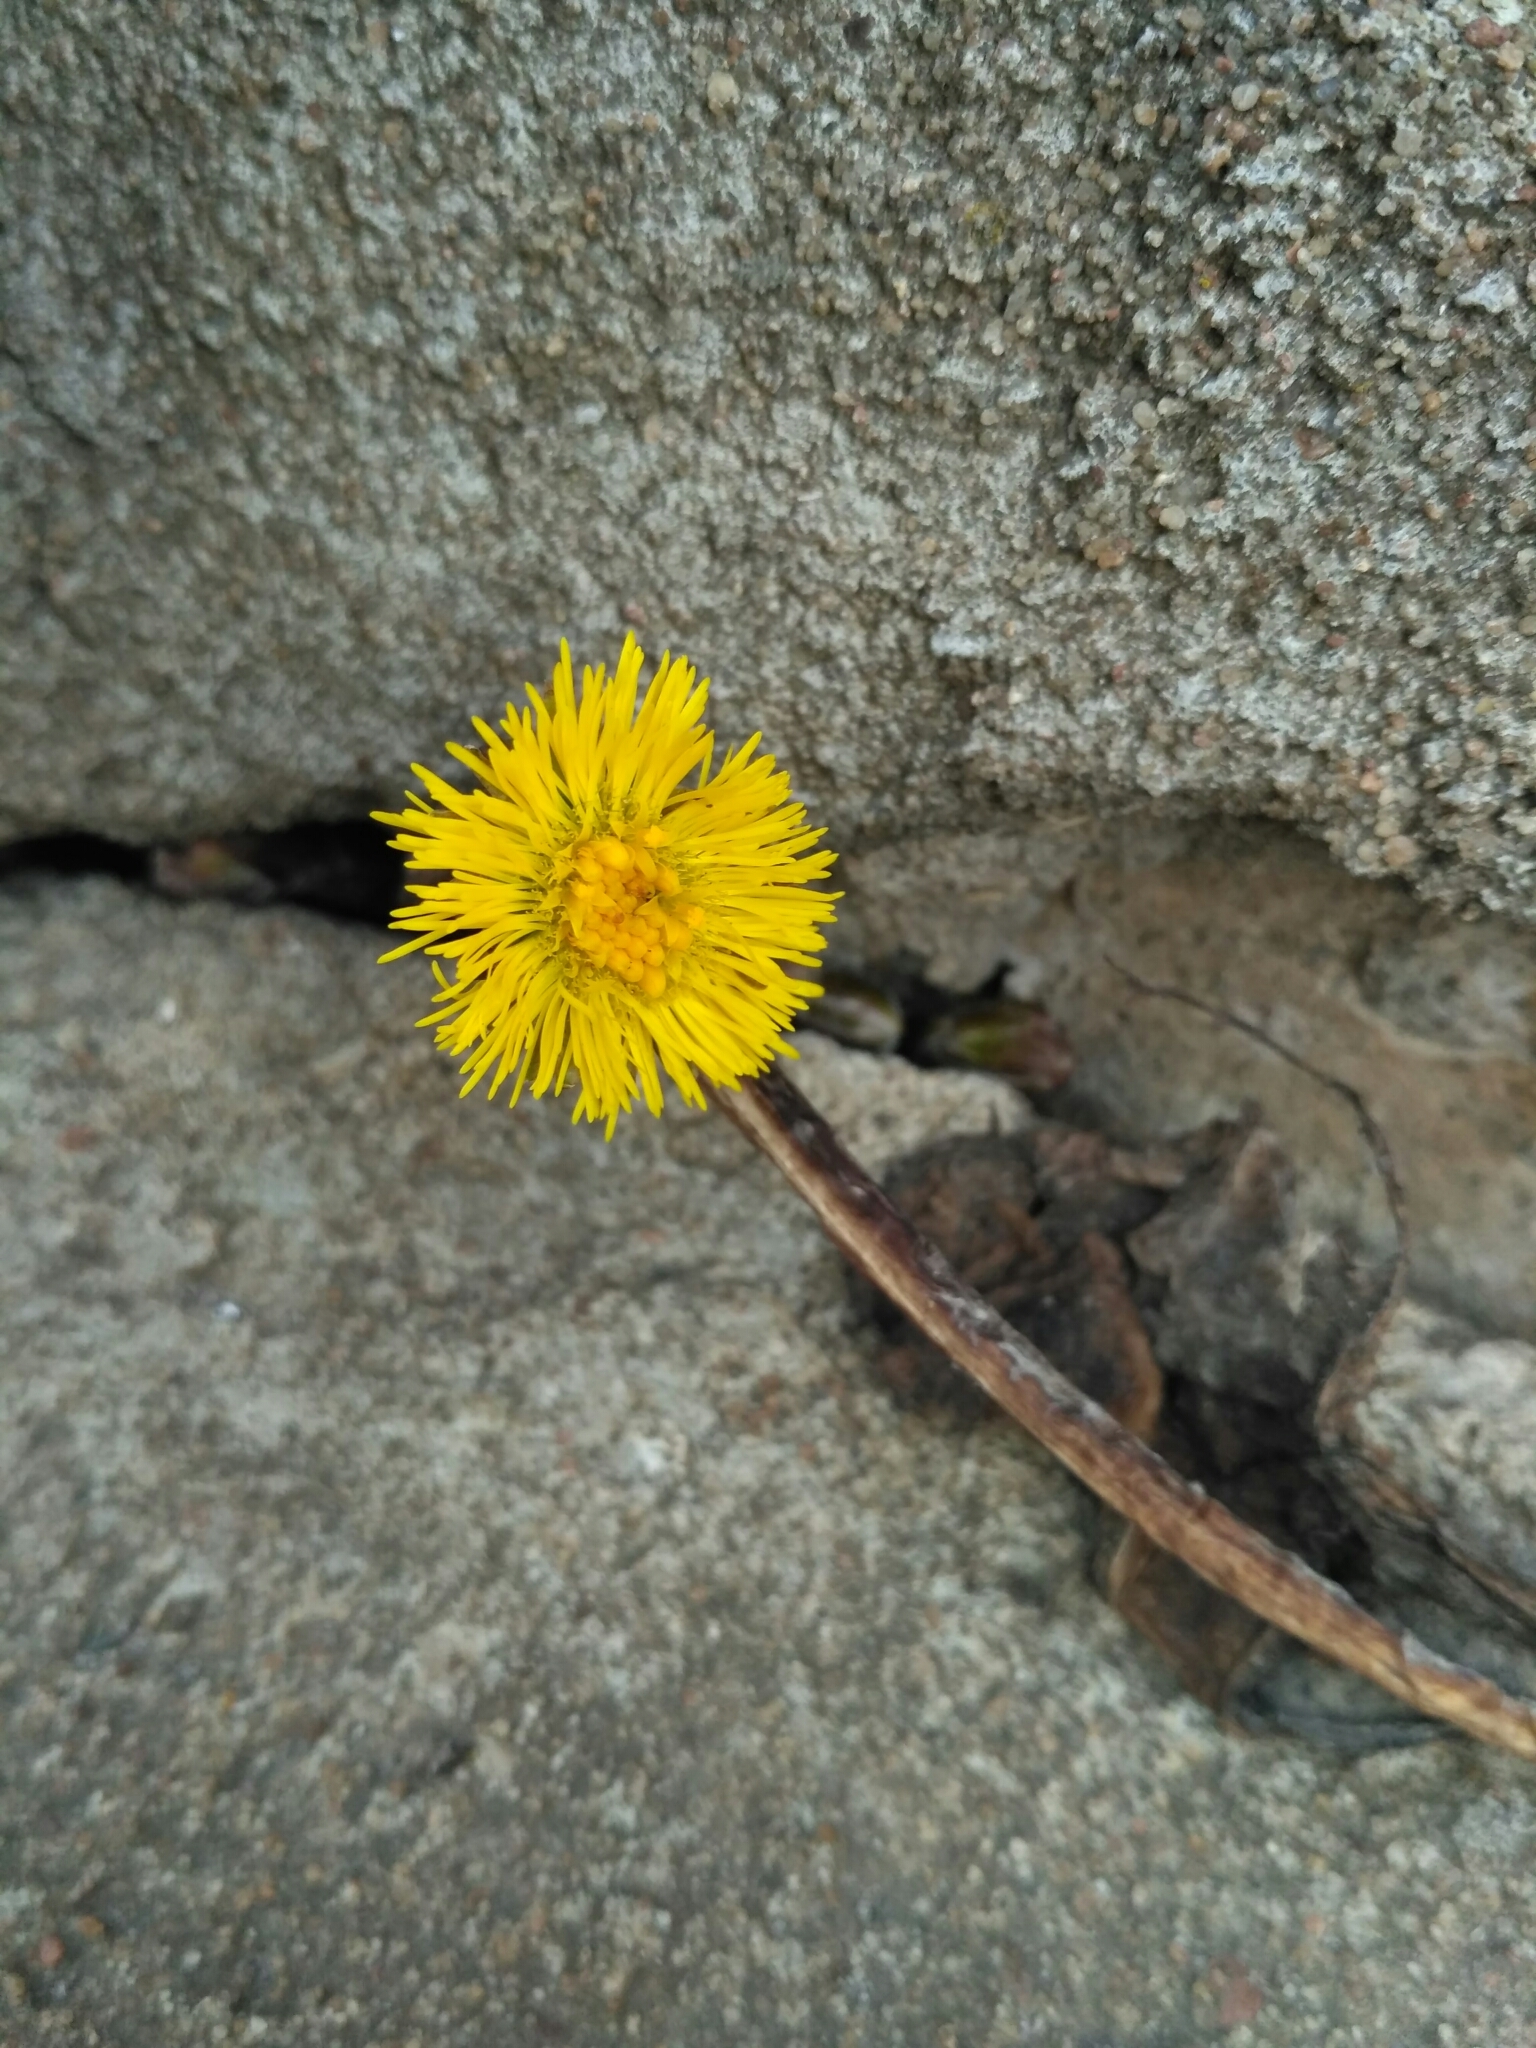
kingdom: Plantae
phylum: Tracheophyta
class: Magnoliopsida
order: Asterales
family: Asteraceae
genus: Tussilago
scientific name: Tussilago farfara
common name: Coltsfoot
